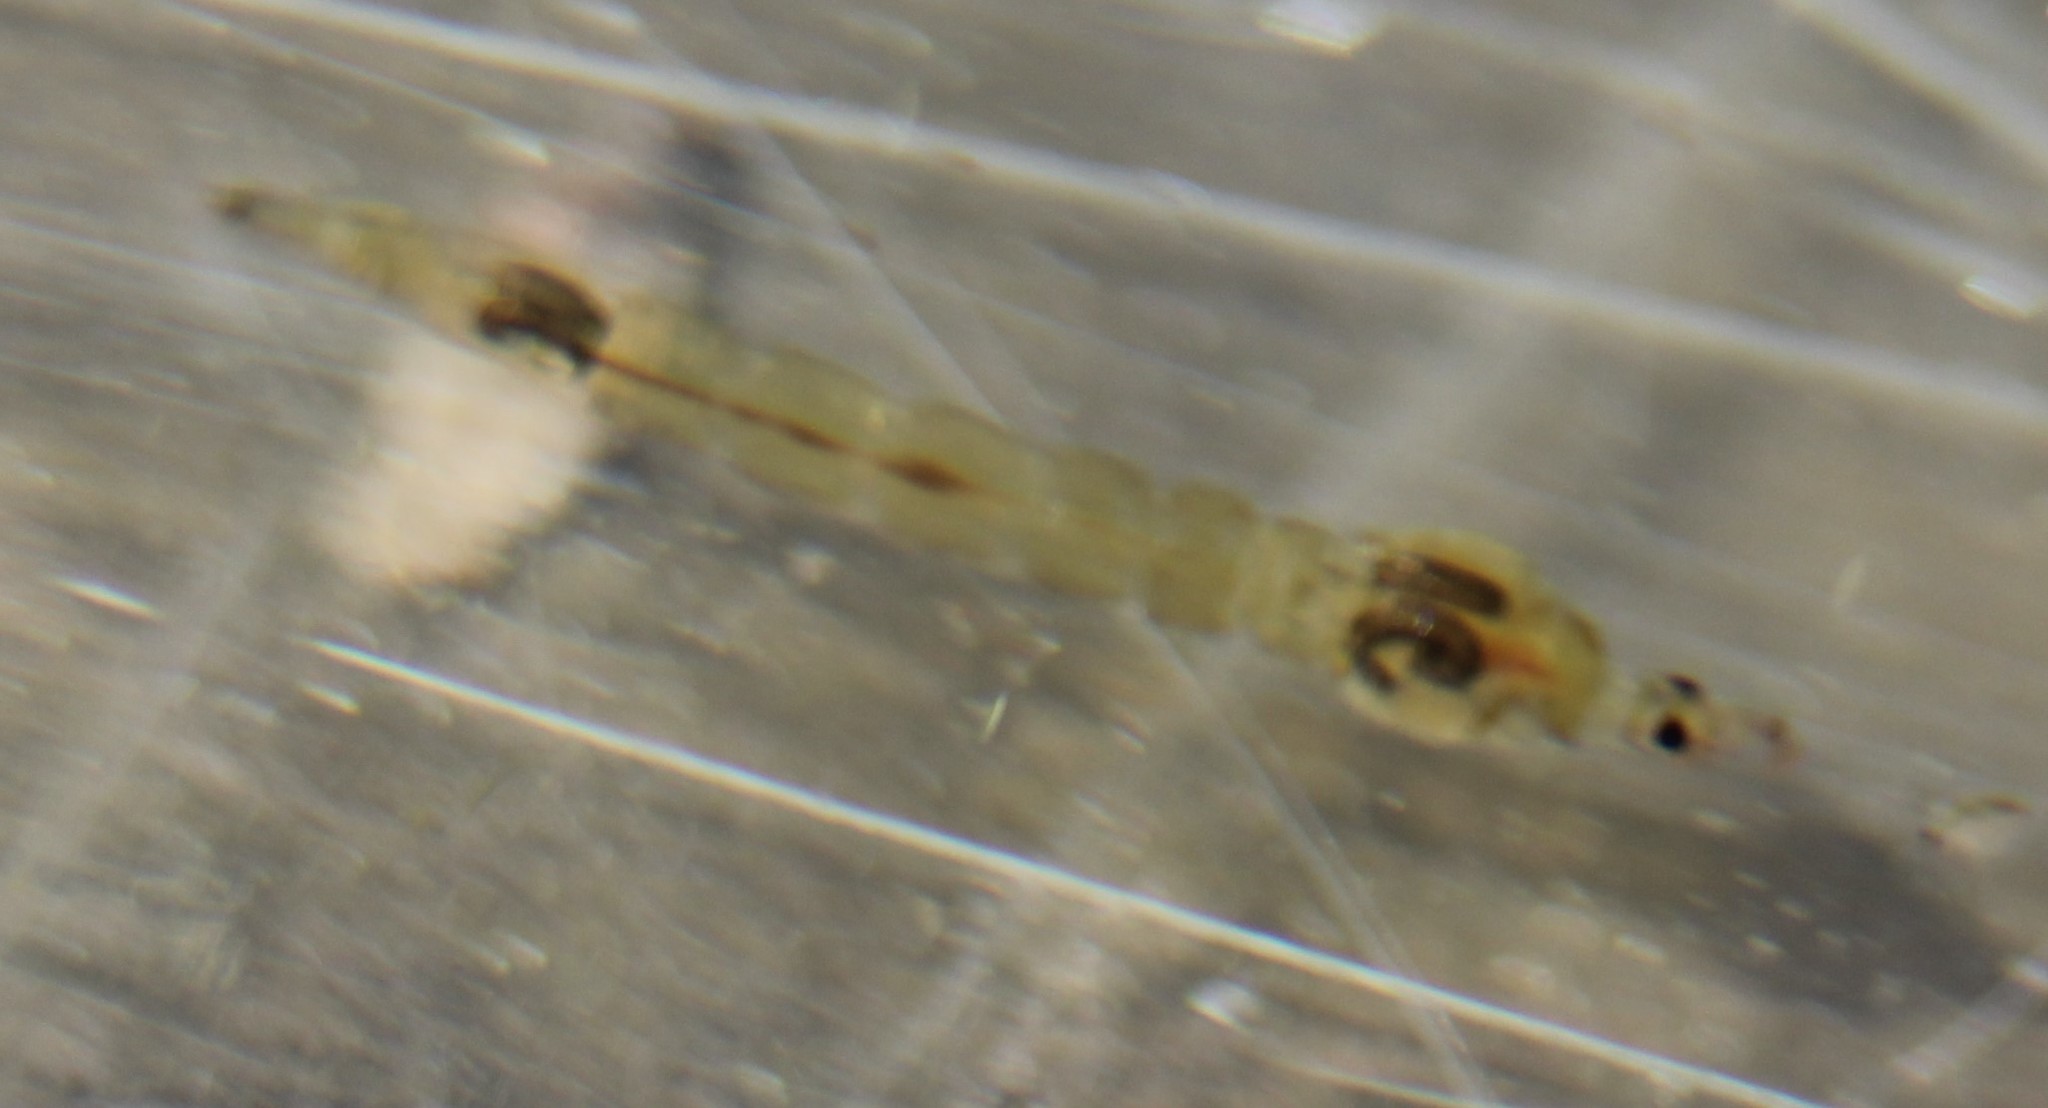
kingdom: Animalia
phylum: Arthropoda
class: Insecta
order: Diptera
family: Chaoboridae
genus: Chaoborus
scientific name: Chaoborus
